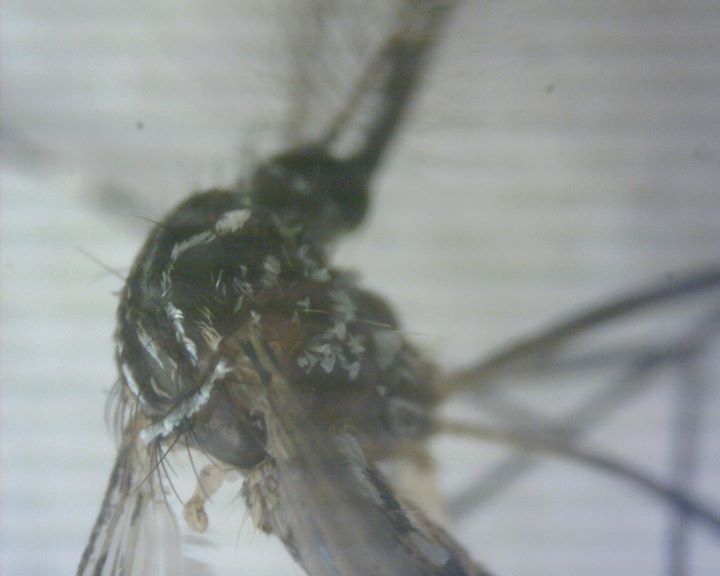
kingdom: Animalia
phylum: Arthropoda
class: Insecta
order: Diptera
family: Culicidae
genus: Aedes
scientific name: Aedes aegypti
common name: Yellow fever mosquito
